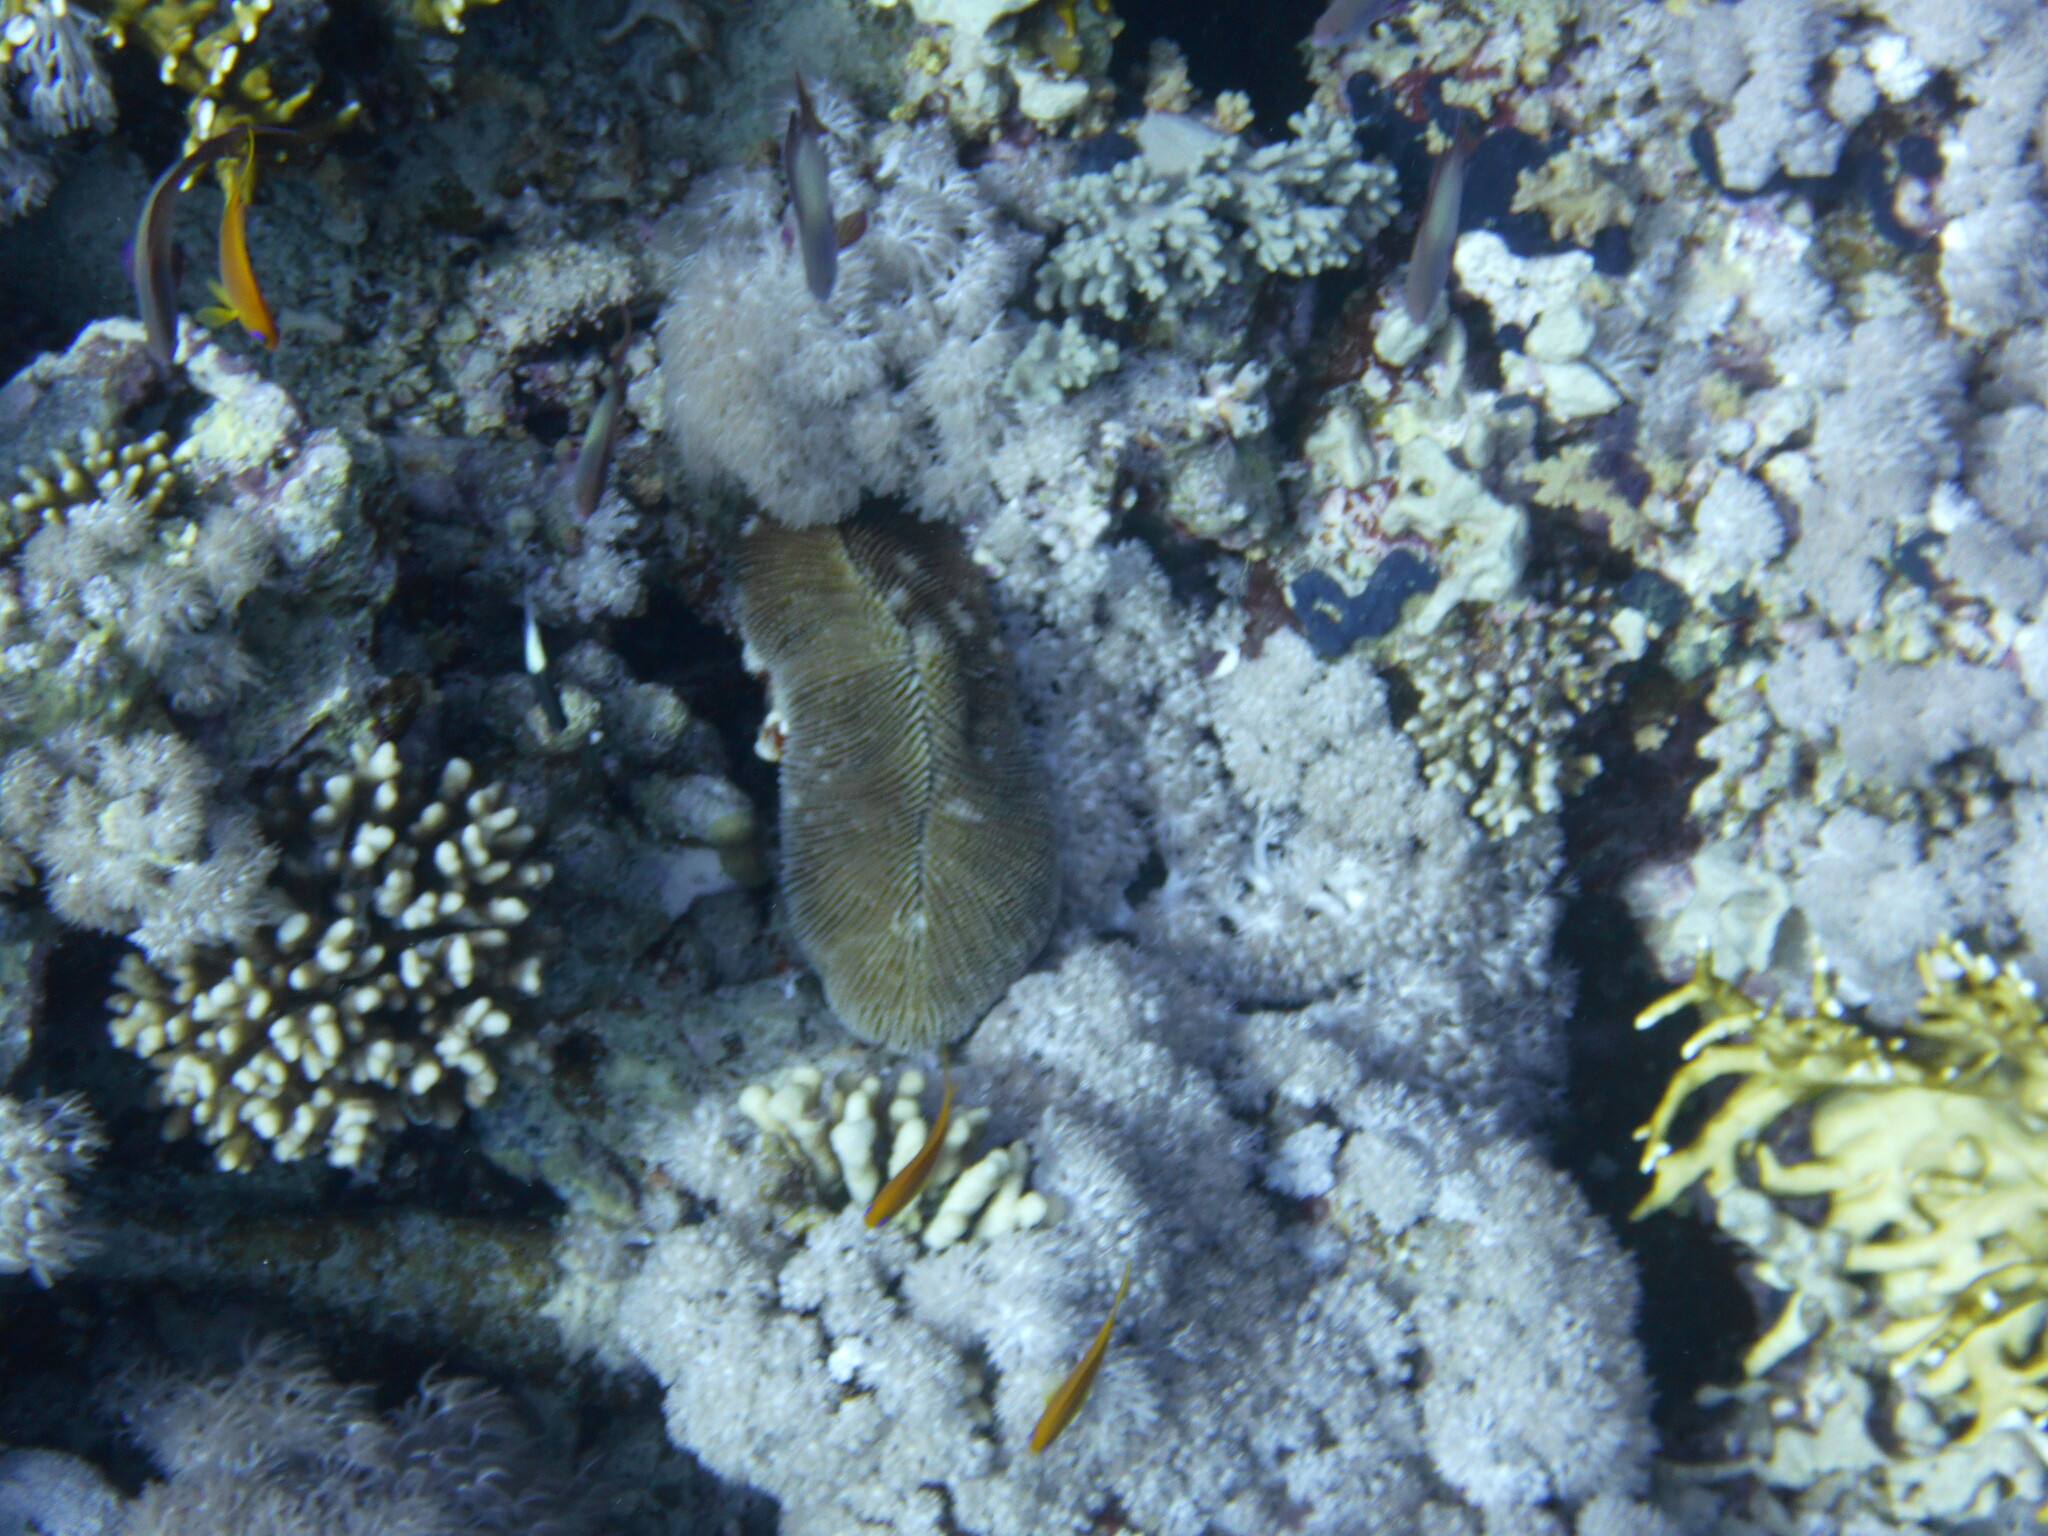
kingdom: Animalia
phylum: Cnidaria
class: Anthozoa
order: Scleractinia
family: Fungiidae
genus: Ctenactis
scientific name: Ctenactis crassa
